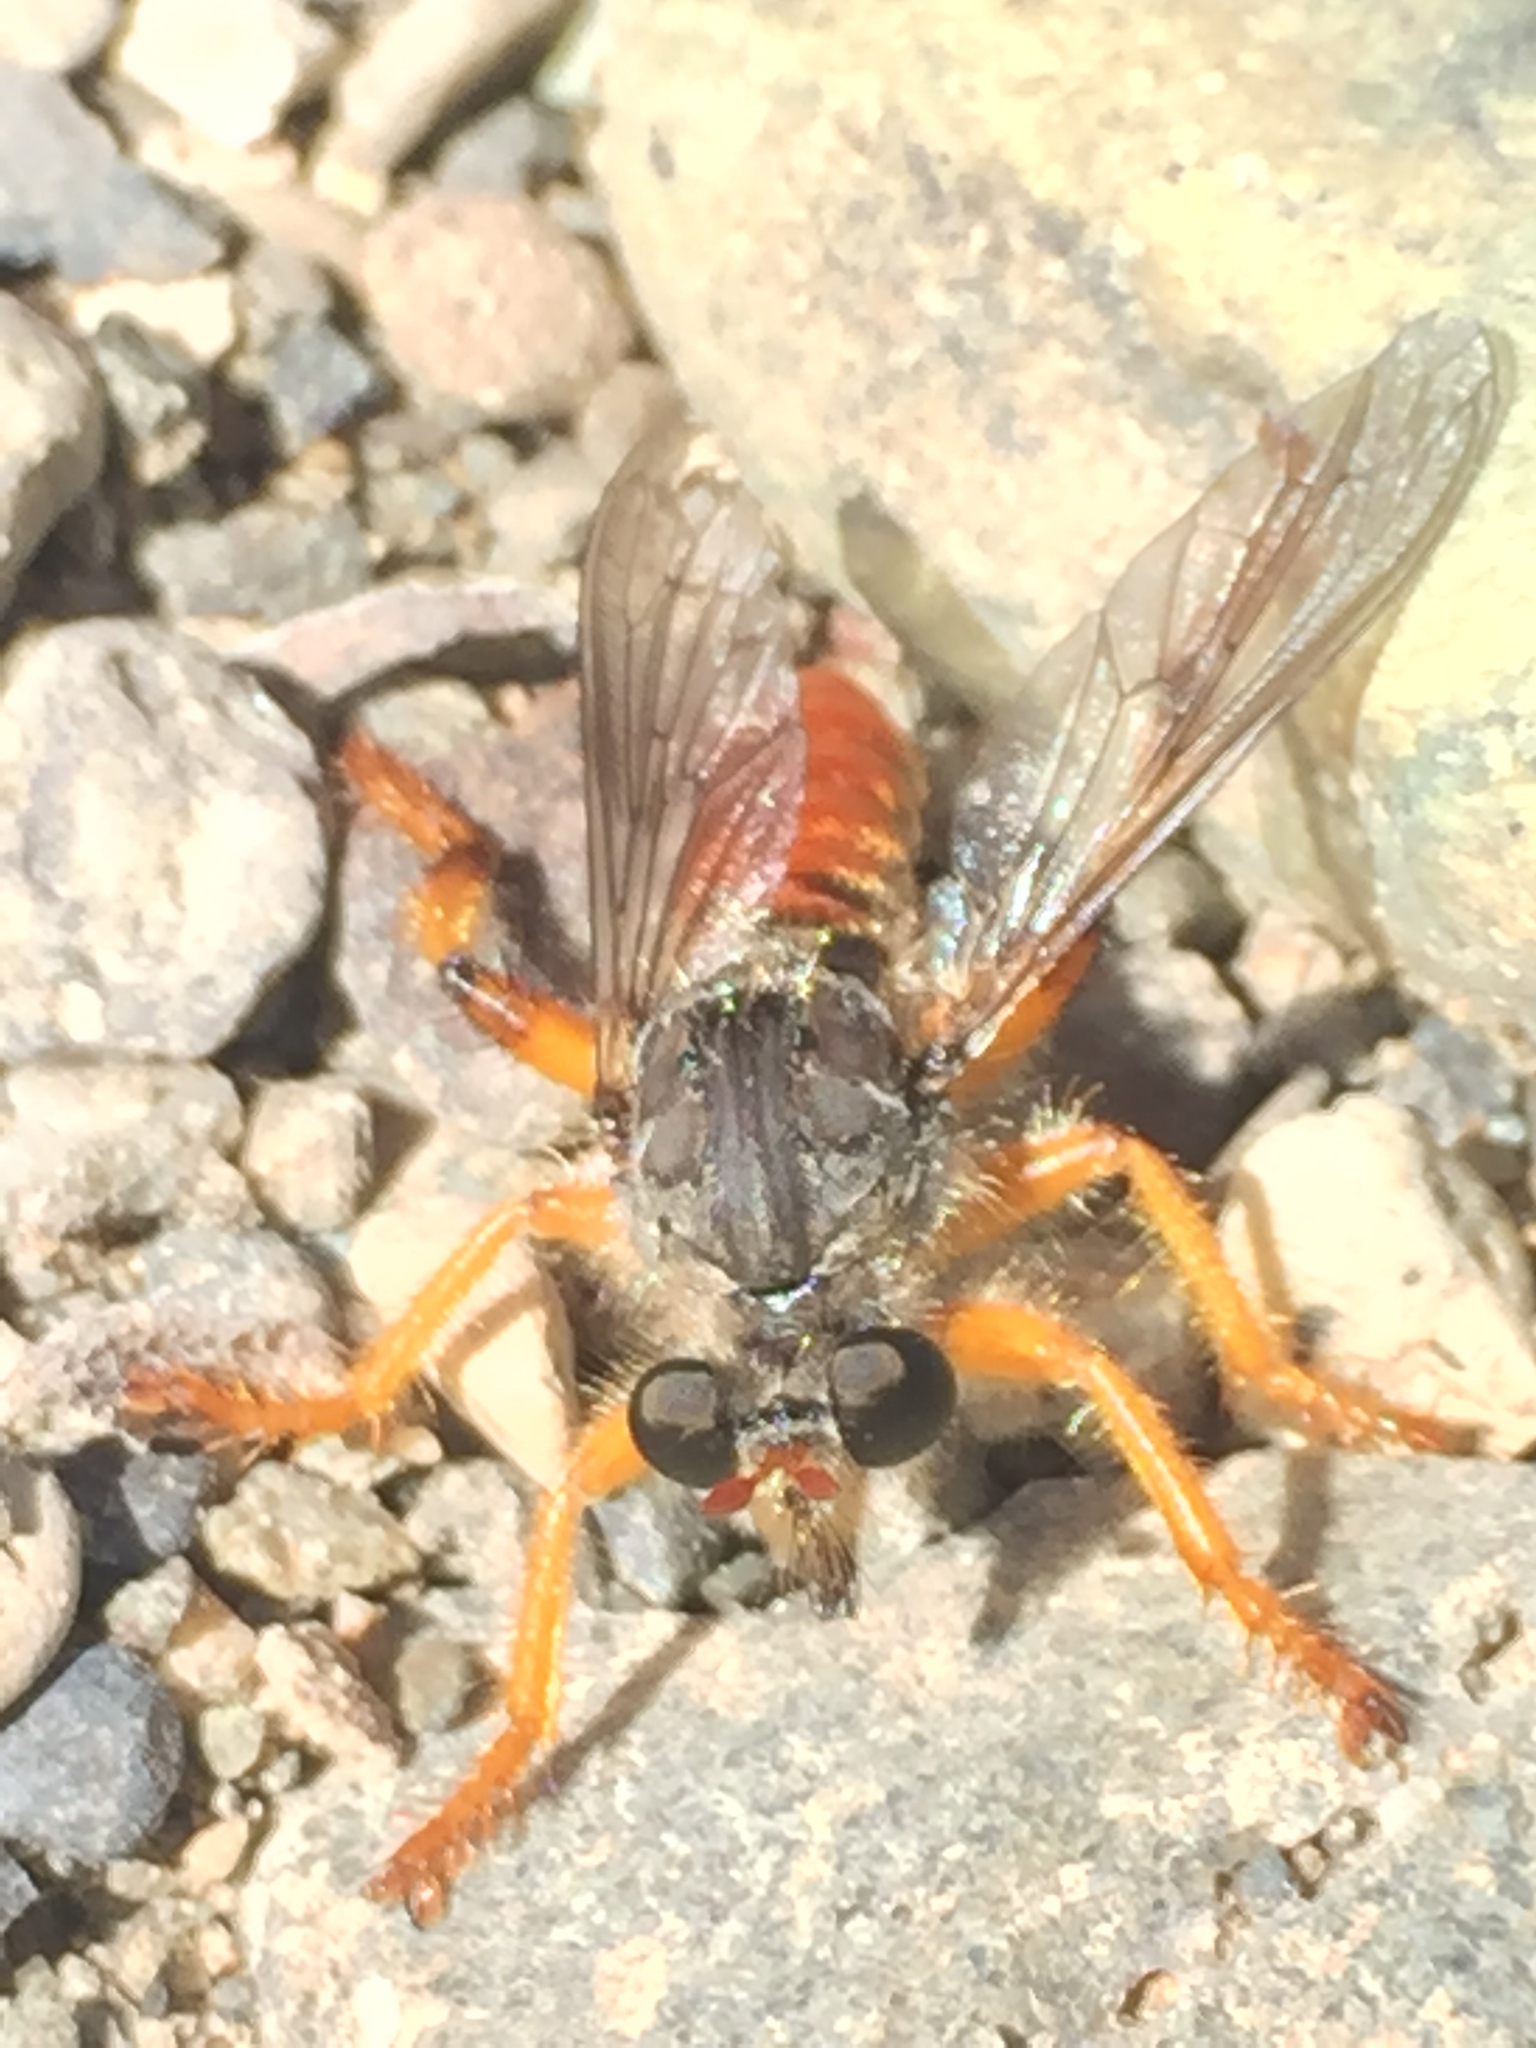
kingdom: Animalia
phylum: Arthropoda
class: Insecta
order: Diptera
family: Asilidae
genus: Andrenosoma
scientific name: Andrenosoma hesperium
